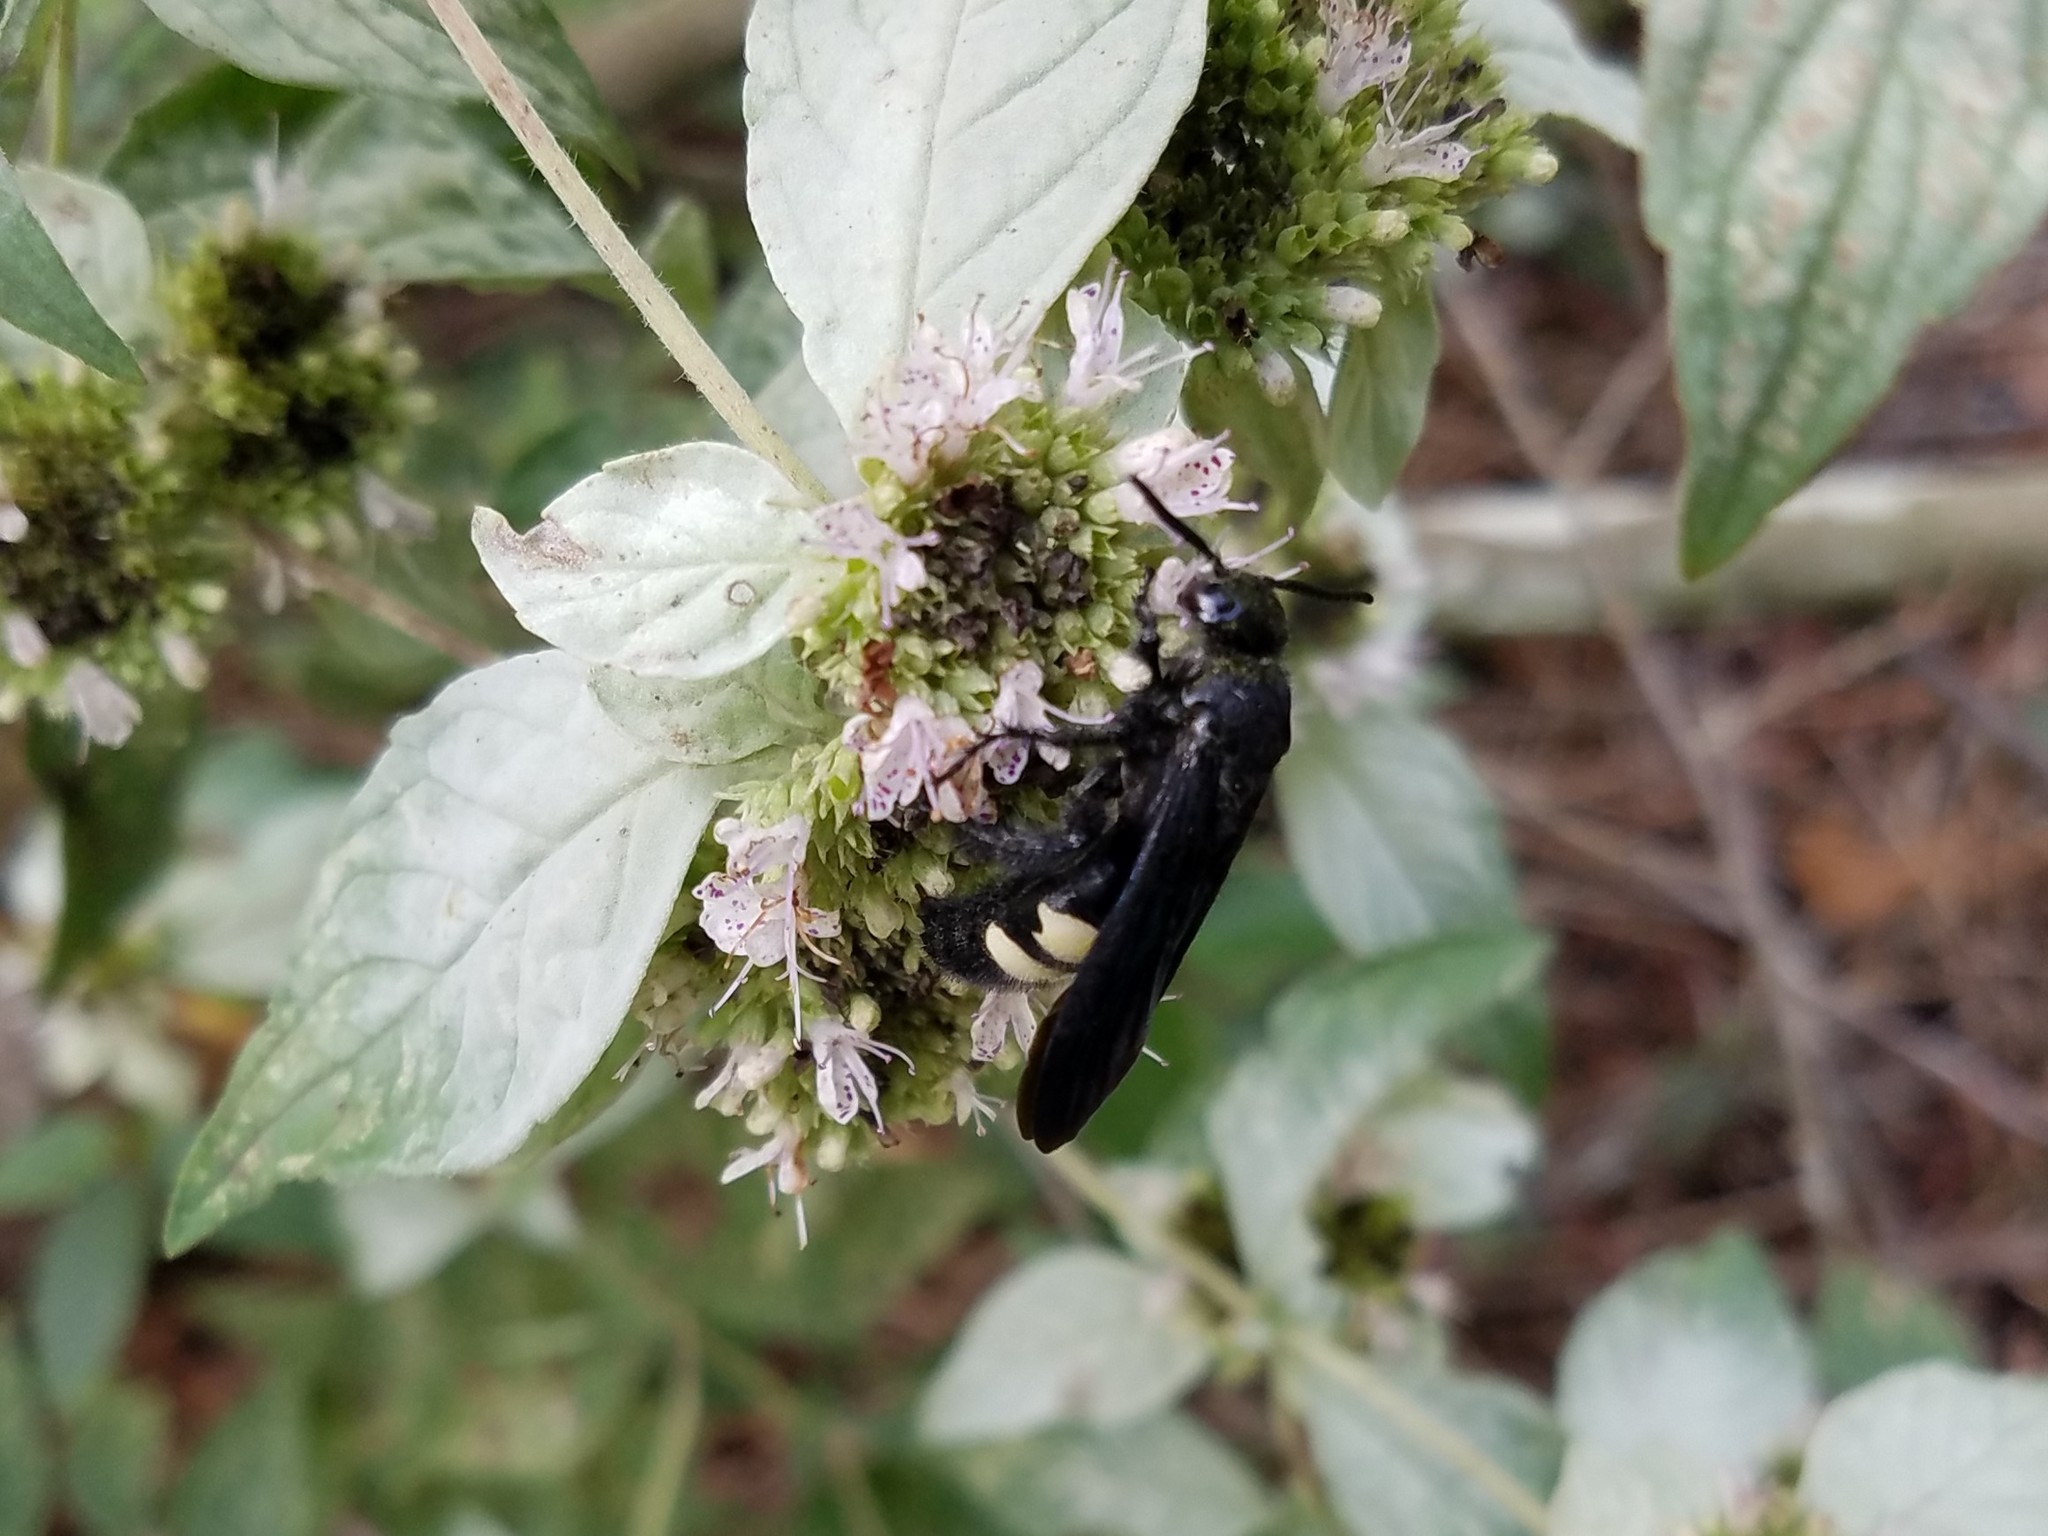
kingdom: Animalia
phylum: Arthropoda
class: Insecta
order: Hymenoptera
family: Scoliidae
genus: Scolia
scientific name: Scolia bicincta
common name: Double-banded scoliid wasp
